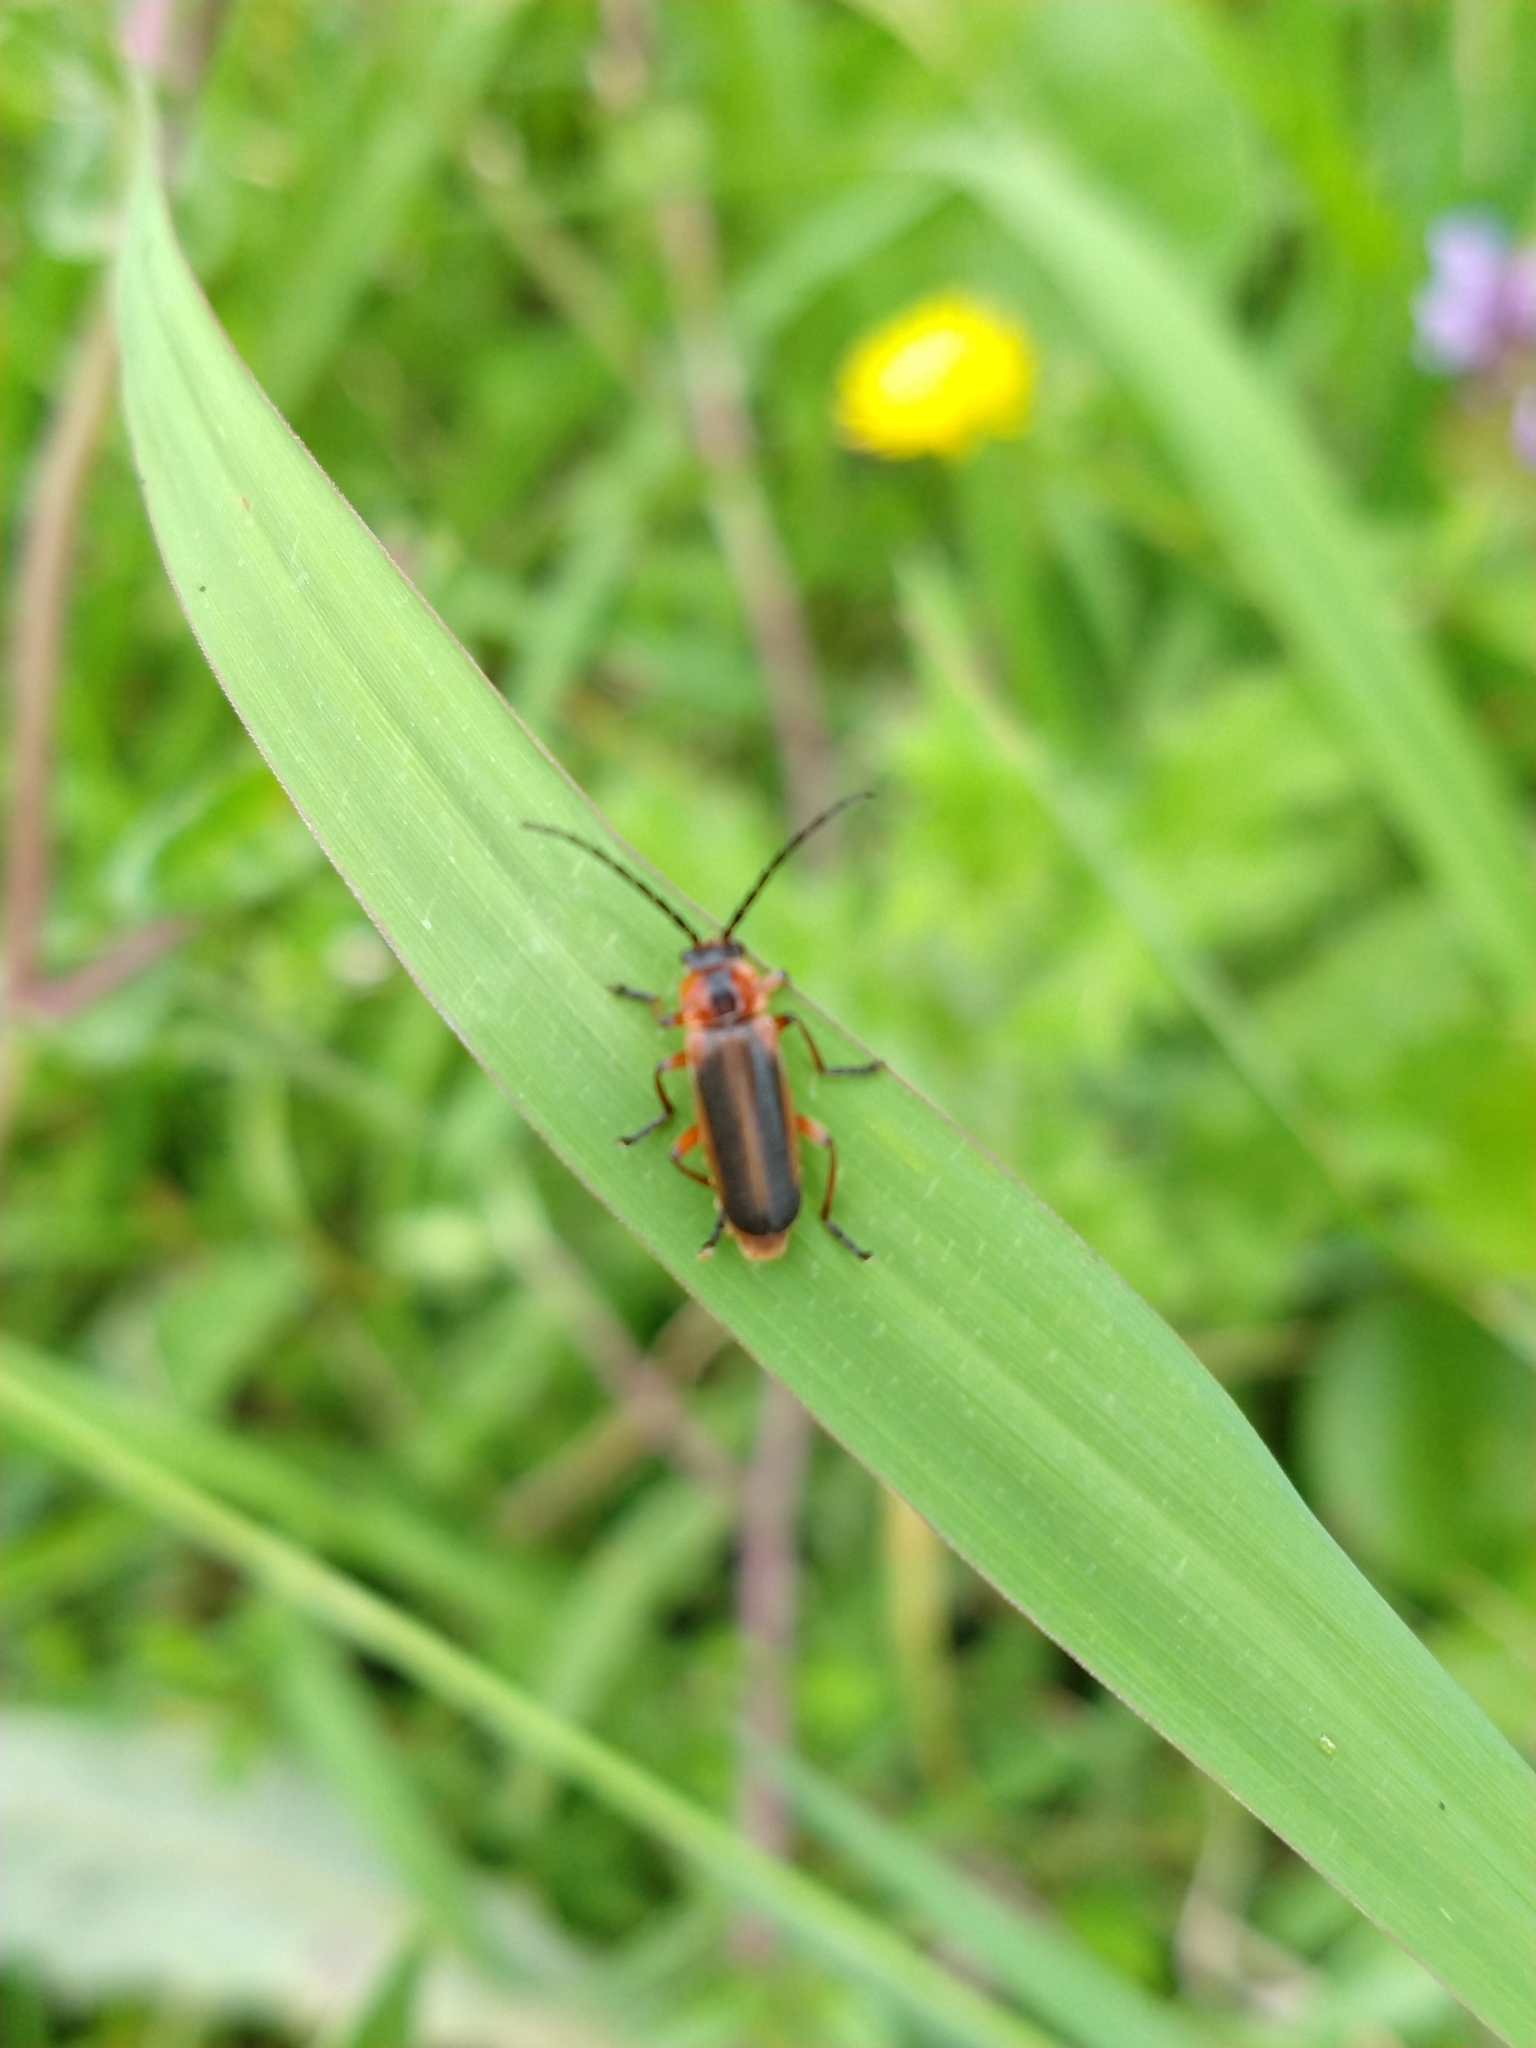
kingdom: Animalia
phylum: Arthropoda
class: Insecta
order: Coleoptera
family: Cantharidae
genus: Discodon
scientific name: Discodon
